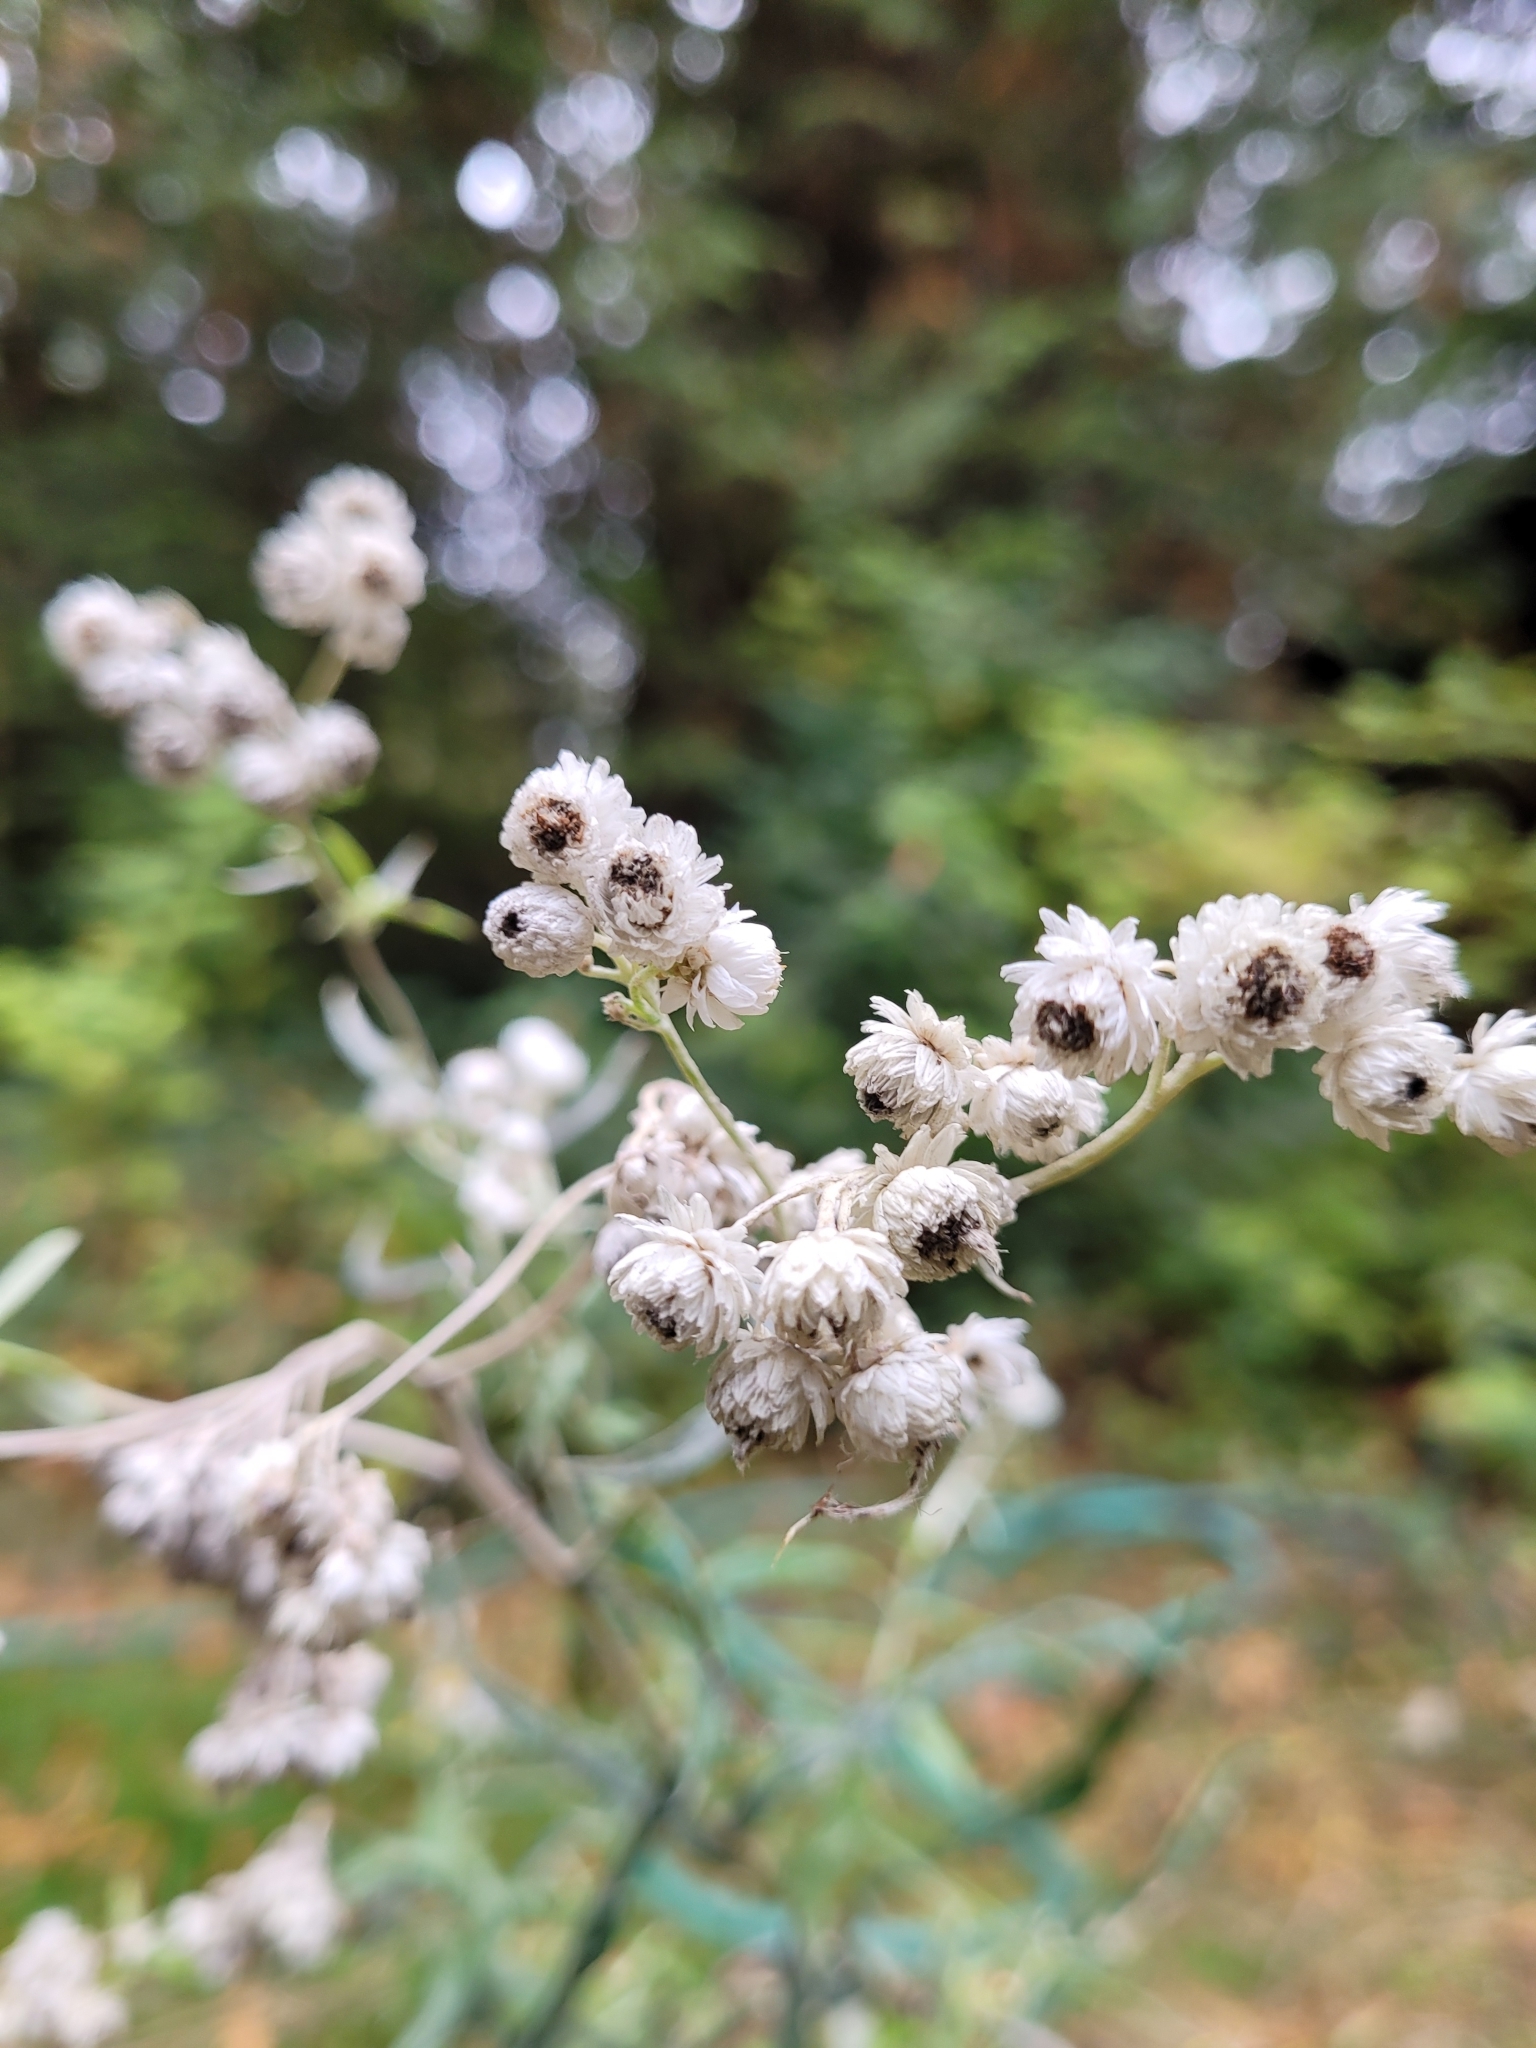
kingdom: Plantae
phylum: Tracheophyta
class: Magnoliopsida
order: Asterales
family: Asteraceae
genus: Anaphalis
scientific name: Anaphalis margaritacea
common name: Pearly everlasting
